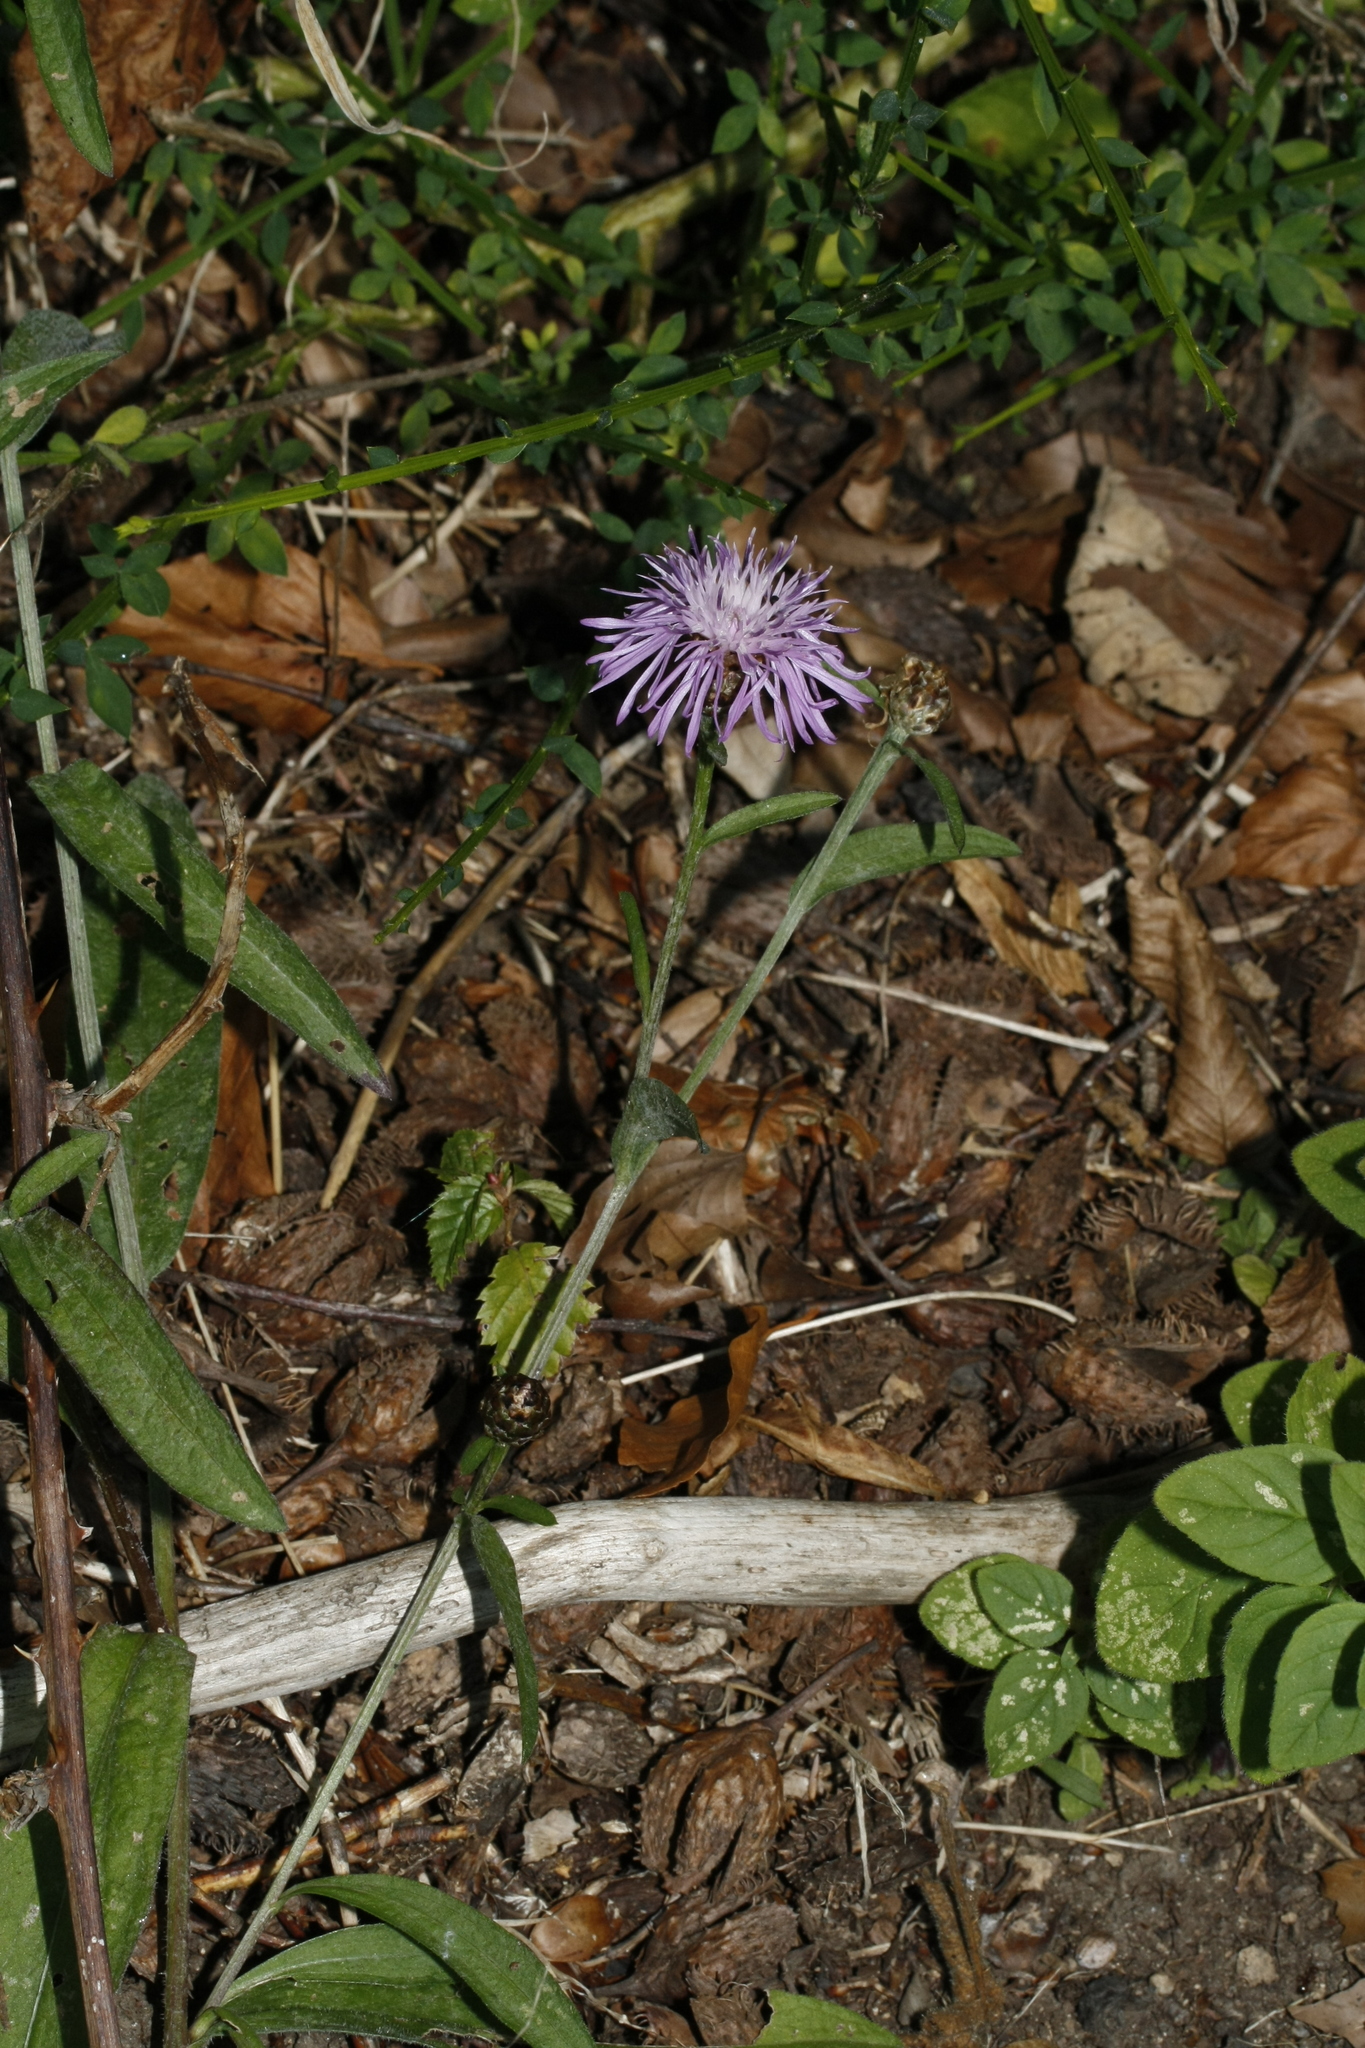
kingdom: Plantae
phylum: Tracheophyta
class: Magnoliopsida
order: Asterales
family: Asteraceae
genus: Centaurea
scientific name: Centaurea jacea
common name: Brown knapweed
